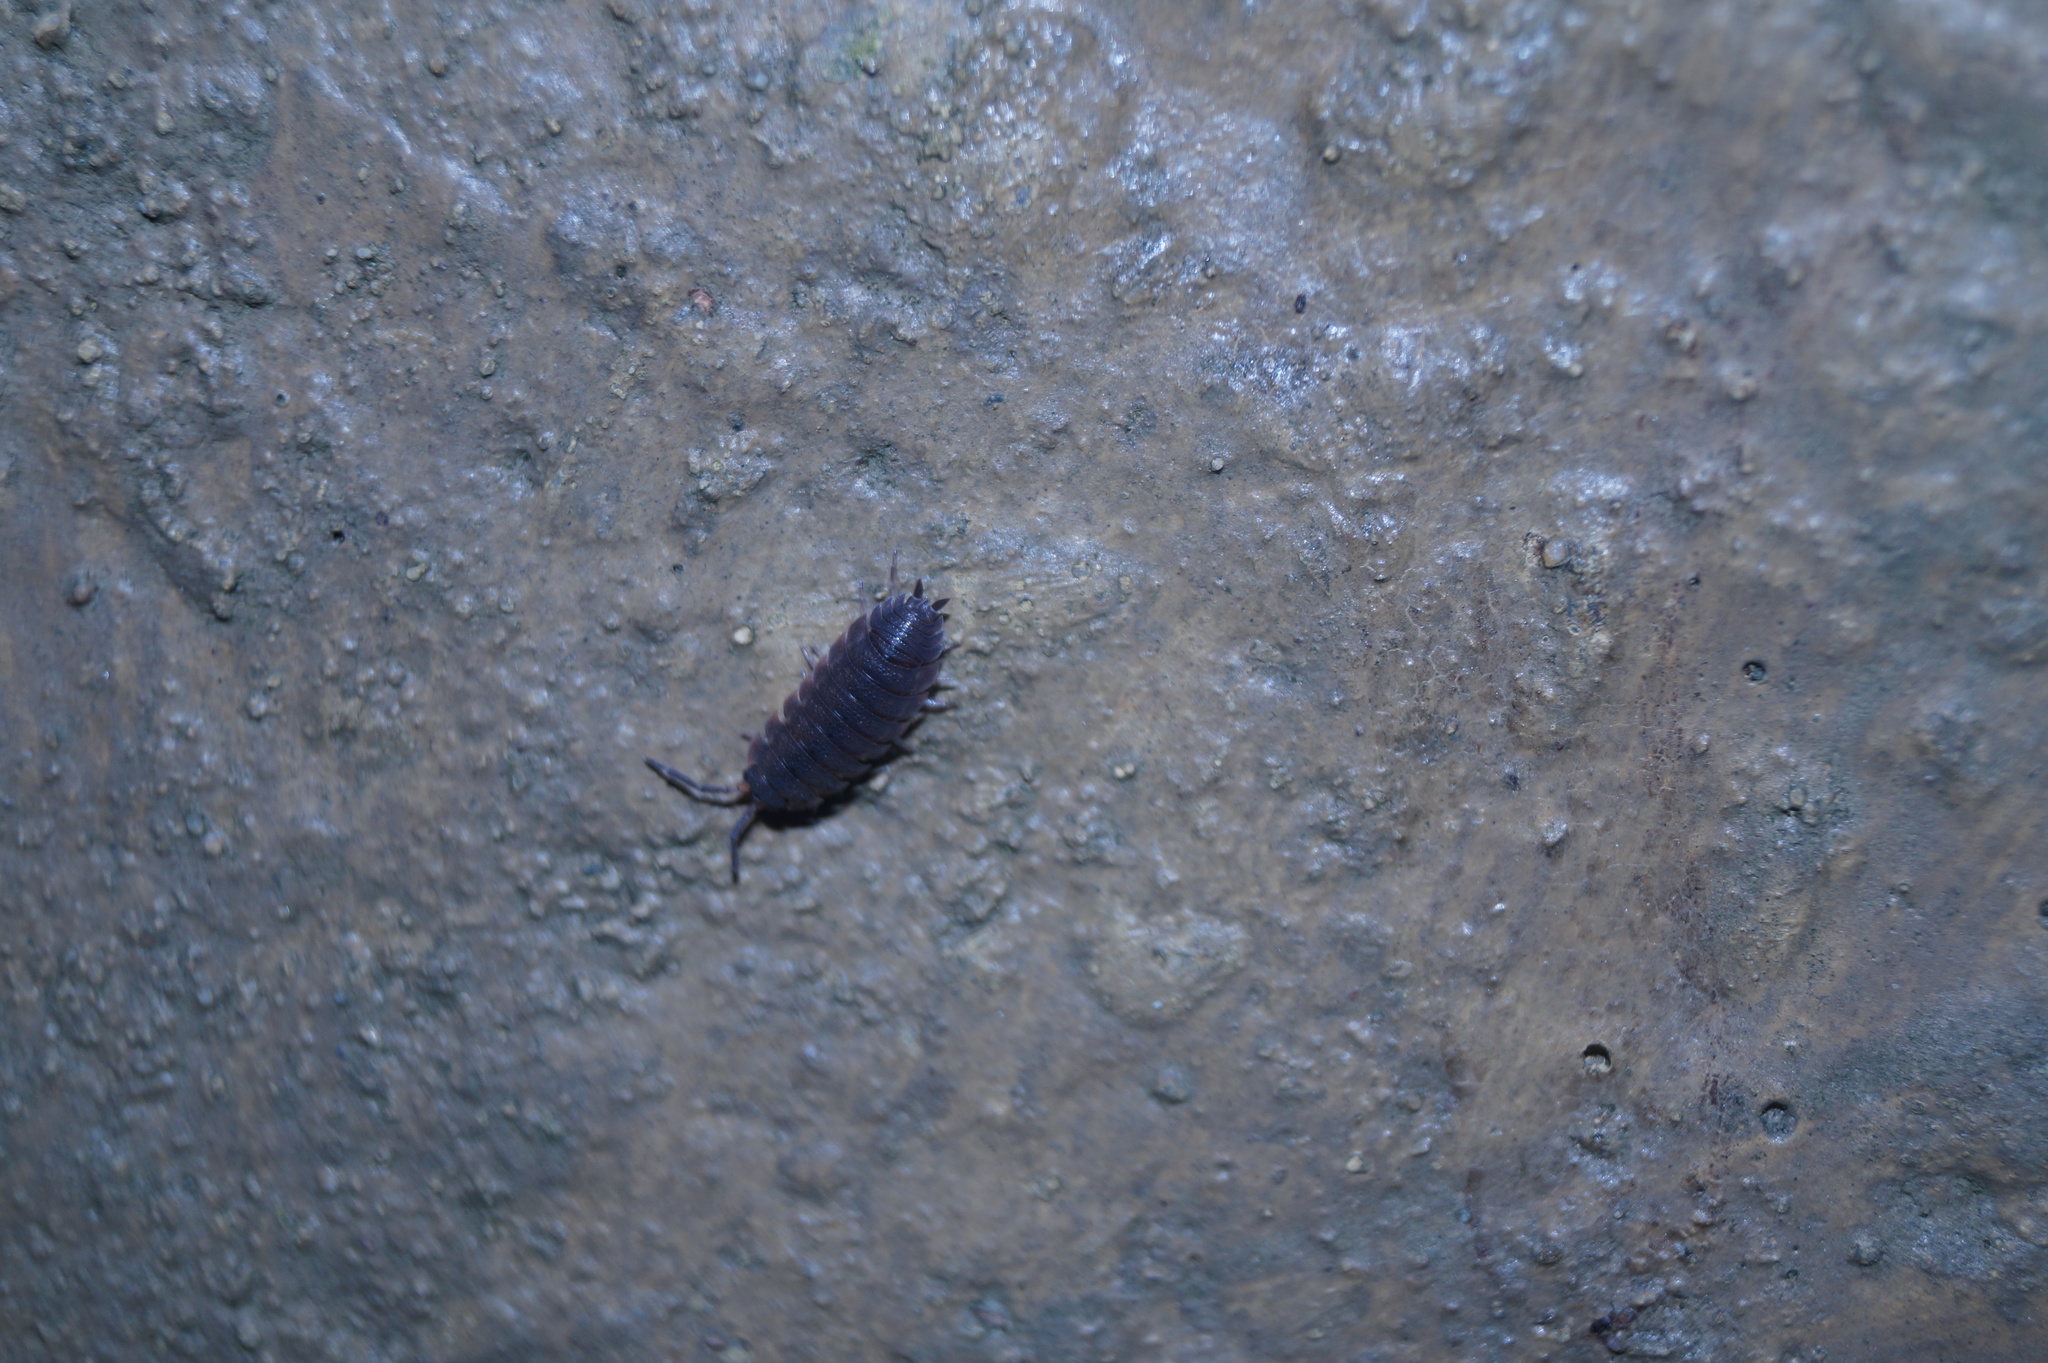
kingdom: Animalia
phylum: Arthropoda
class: Malacostraca
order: Isopoda
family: Porcellionidae
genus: Porcellio
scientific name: Porcellio scaber
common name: Common rough woodlouse
